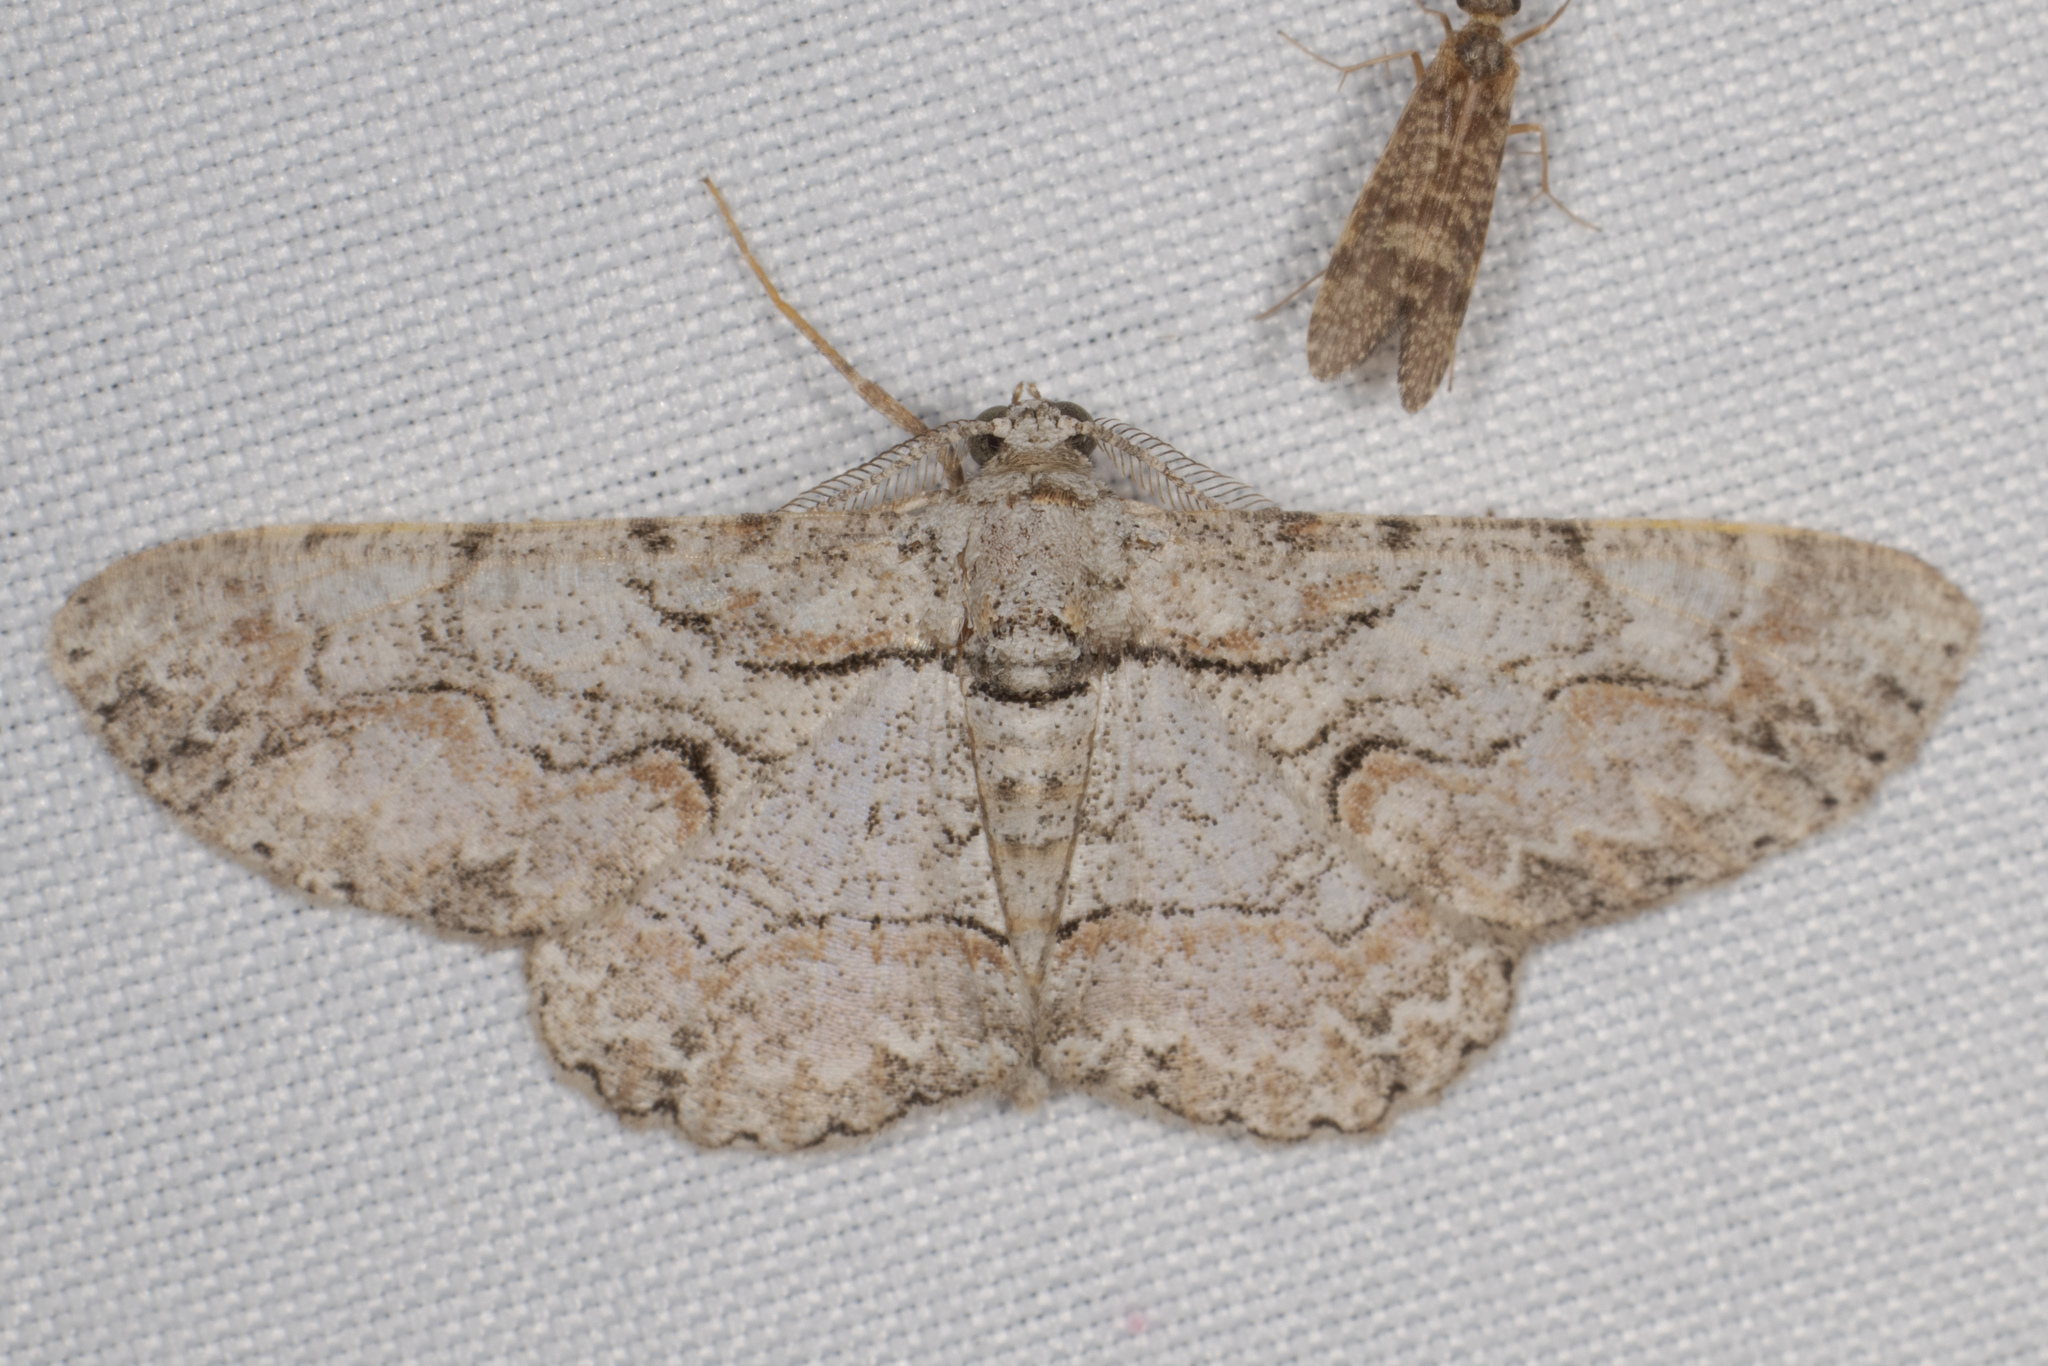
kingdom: Animalia
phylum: Arthropoda
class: Insecta
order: Lepidoptera
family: Geometridae
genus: Iridopsis
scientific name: Iridopsis defectaria
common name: Brown-shaded gray
